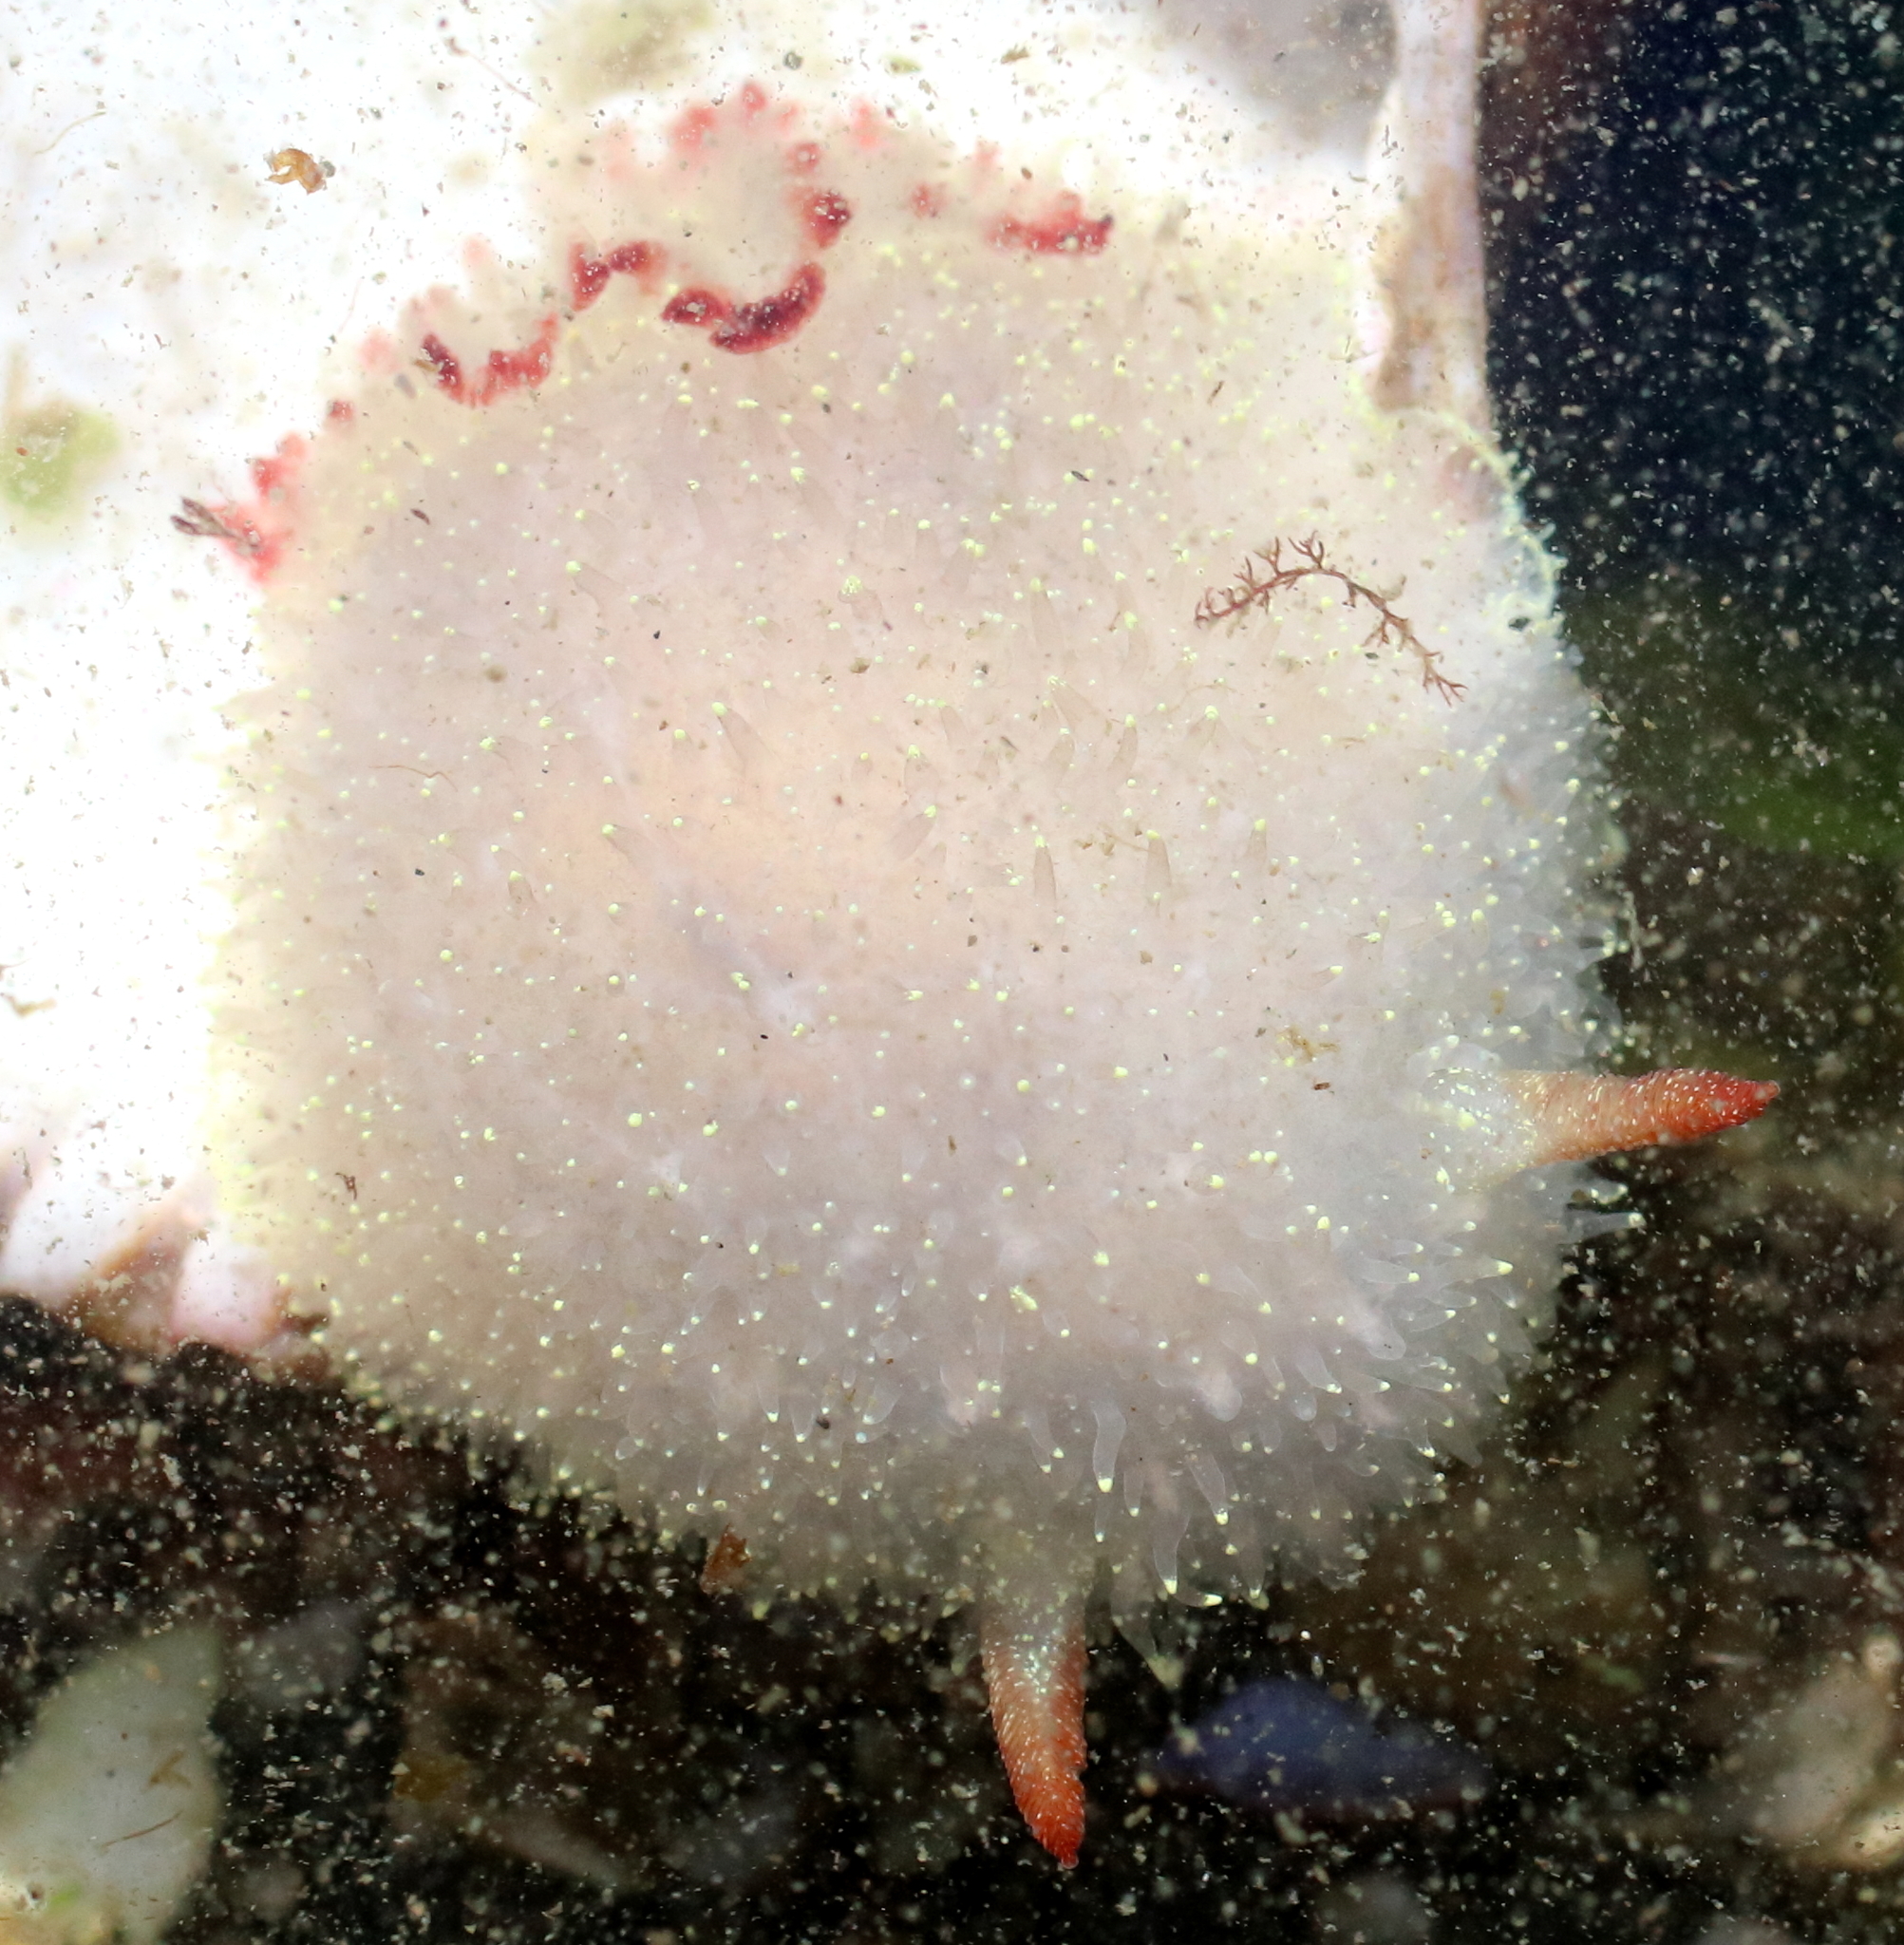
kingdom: Animalia
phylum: Mollusca
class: Gastropoda
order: Nudibranchia
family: Onchidorididae
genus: Acanthodoris
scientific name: Acanthodoris nanaimoensis
